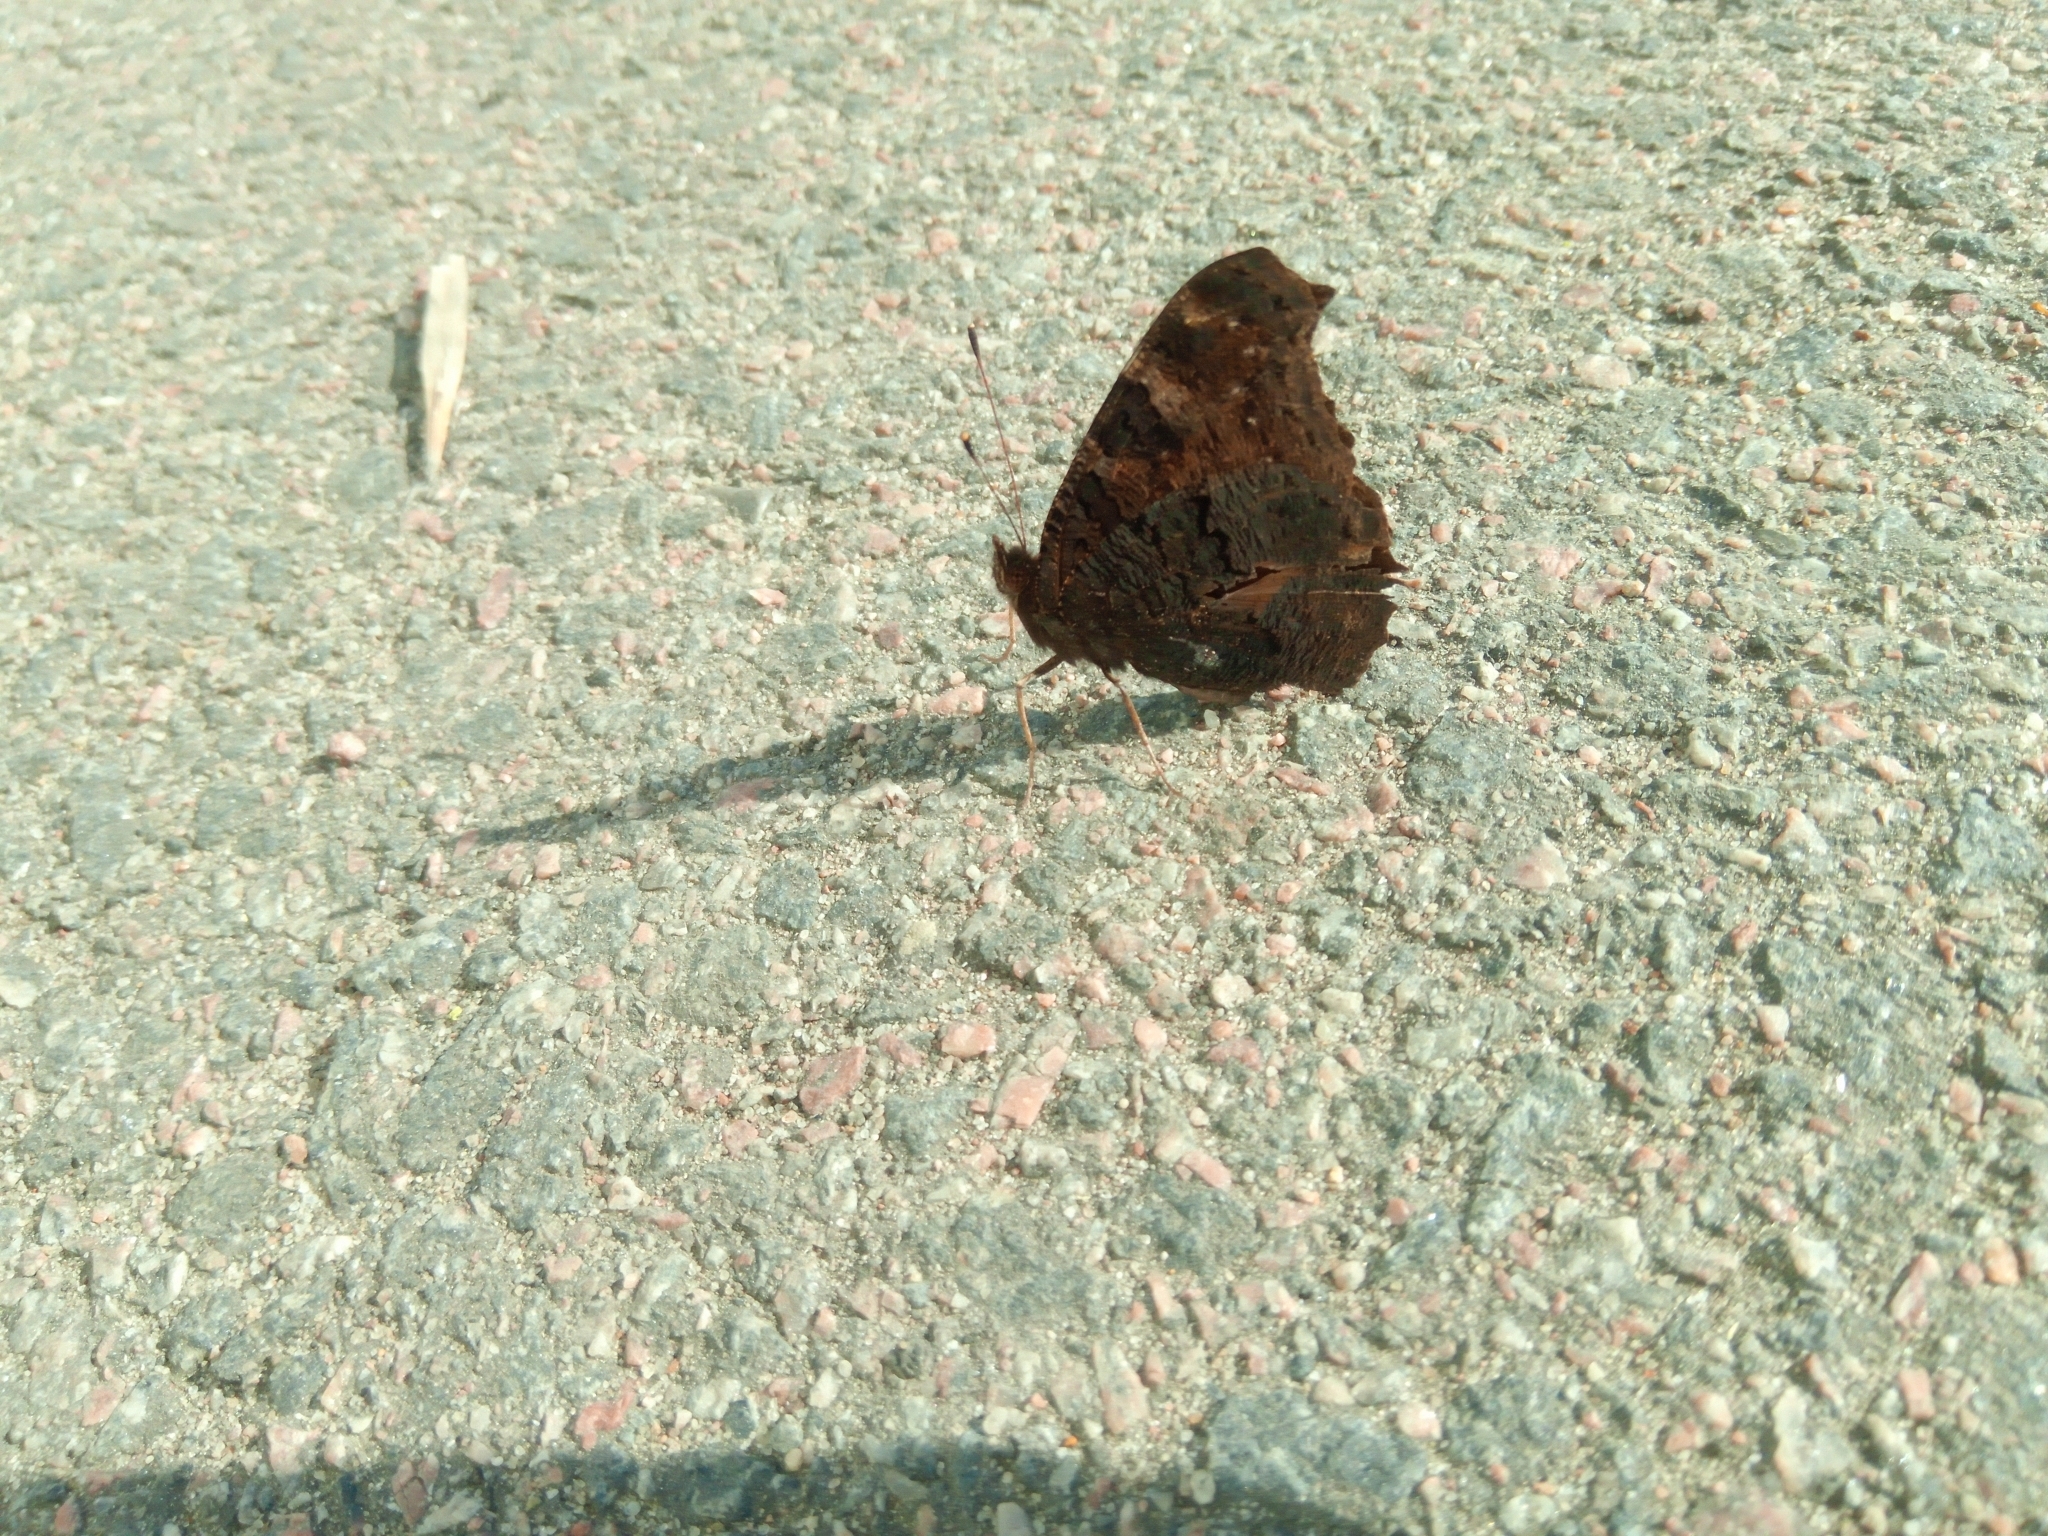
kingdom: Animalia
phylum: Arthropoda
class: Insecta
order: Lepidoptera
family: Nymphalidae
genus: Aglais
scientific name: Aglais io
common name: Peacock
